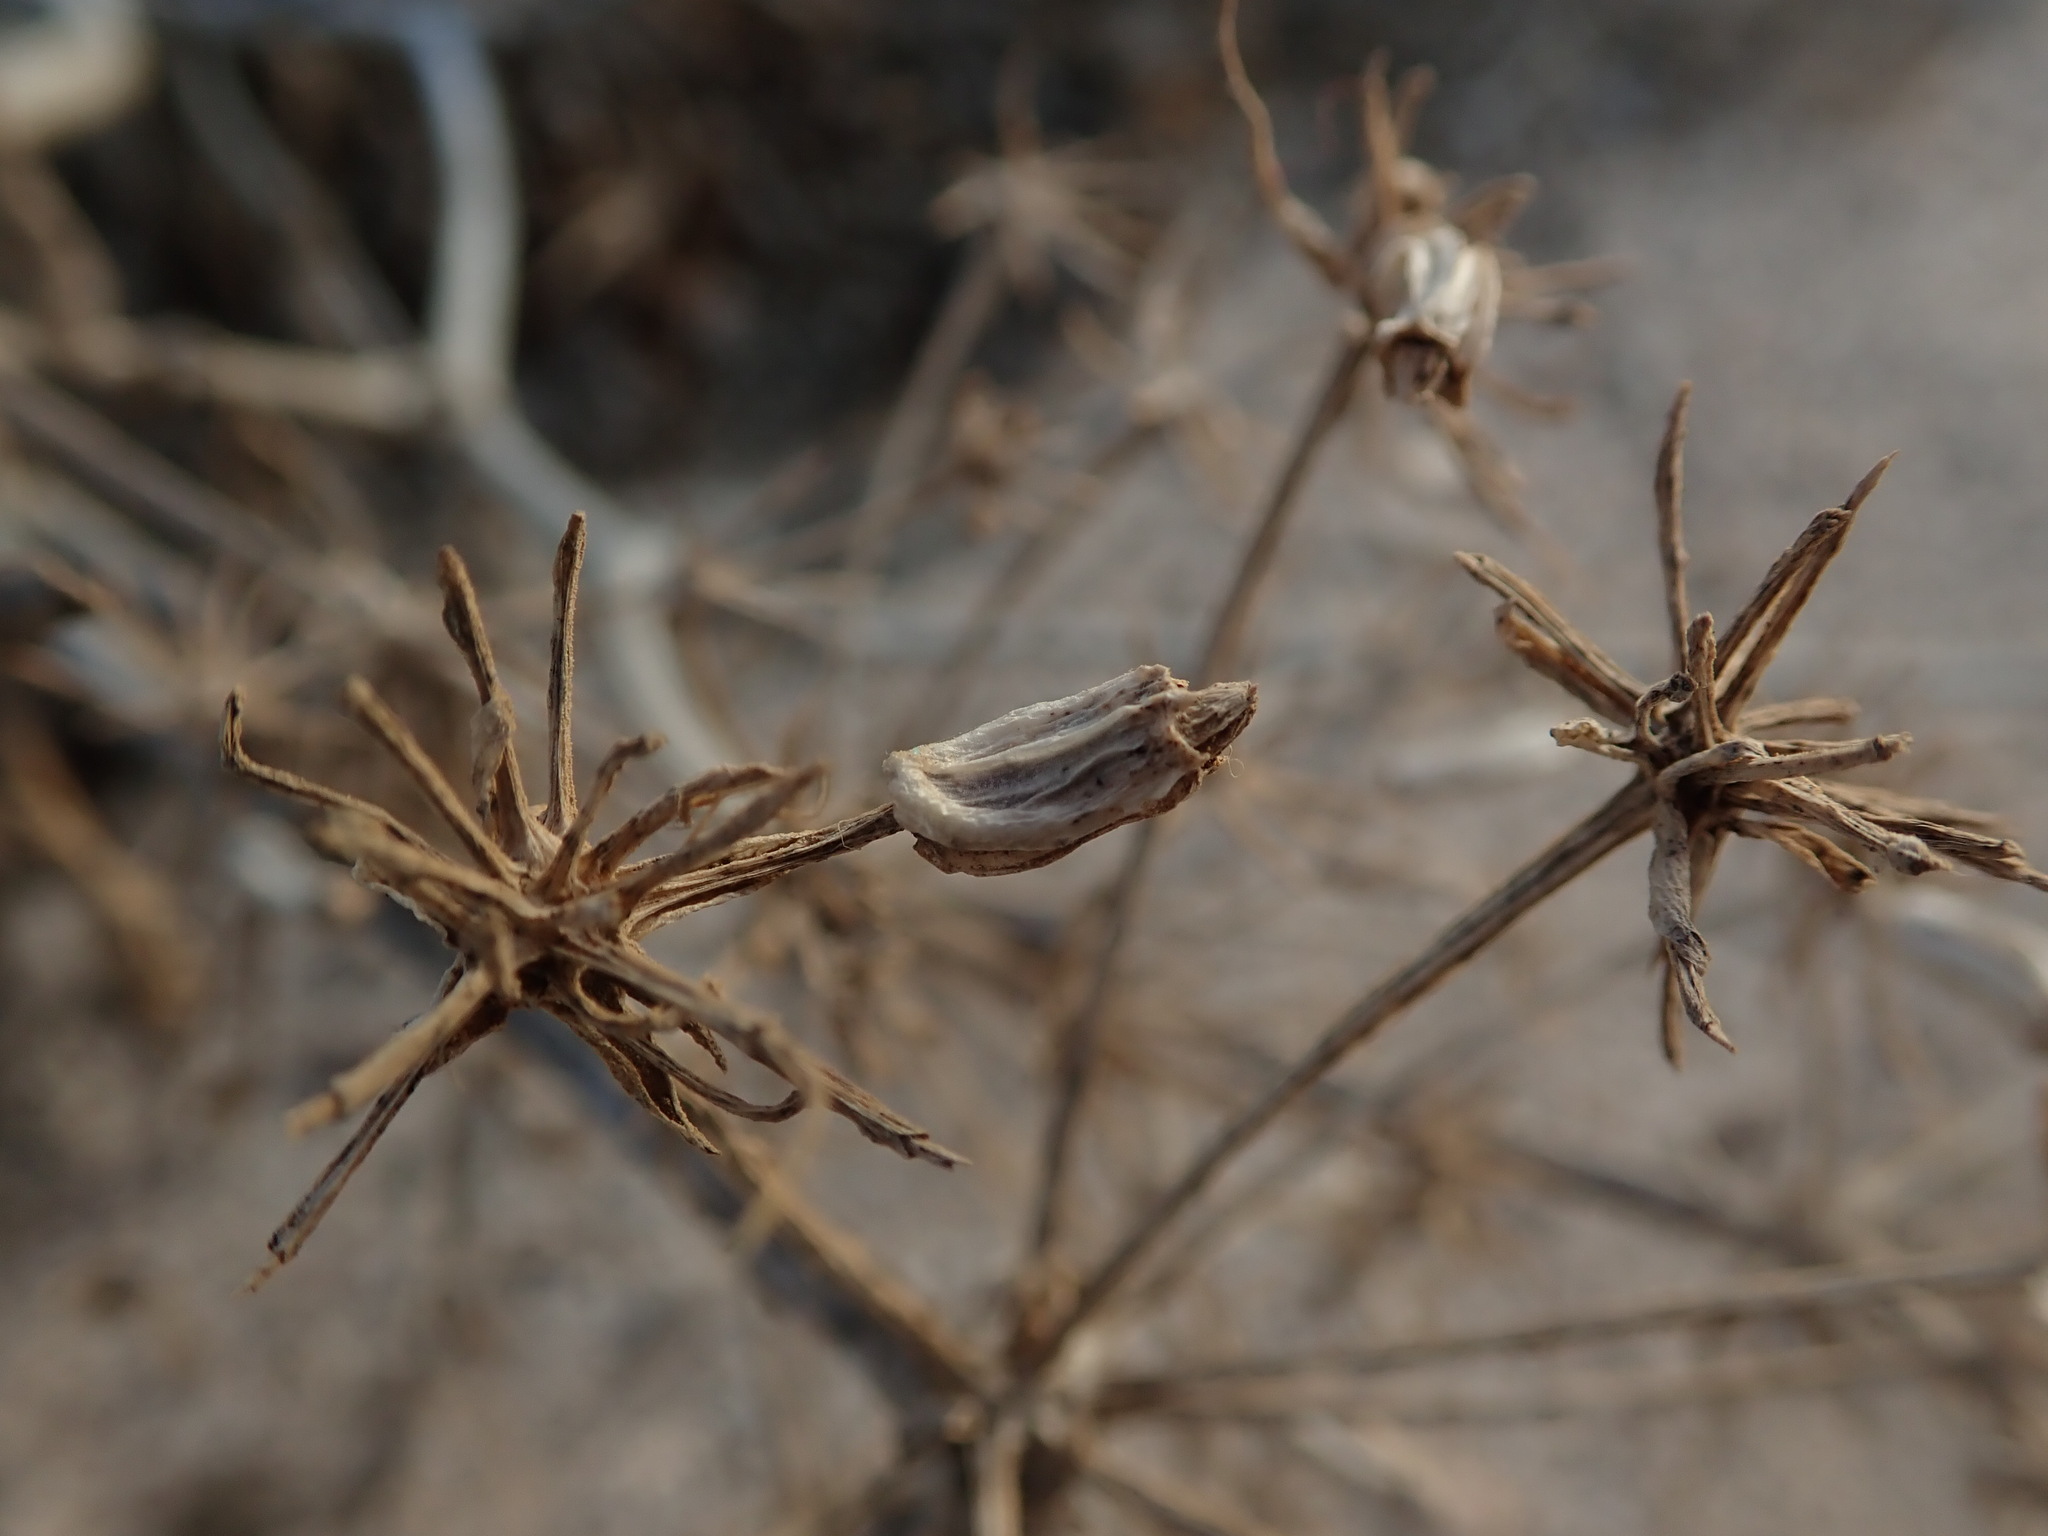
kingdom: Plantae
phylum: Tracheophyta
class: Magnoliopsida
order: Apiales
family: Apiaceae
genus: Astydamia
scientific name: Astydamia latifolia
